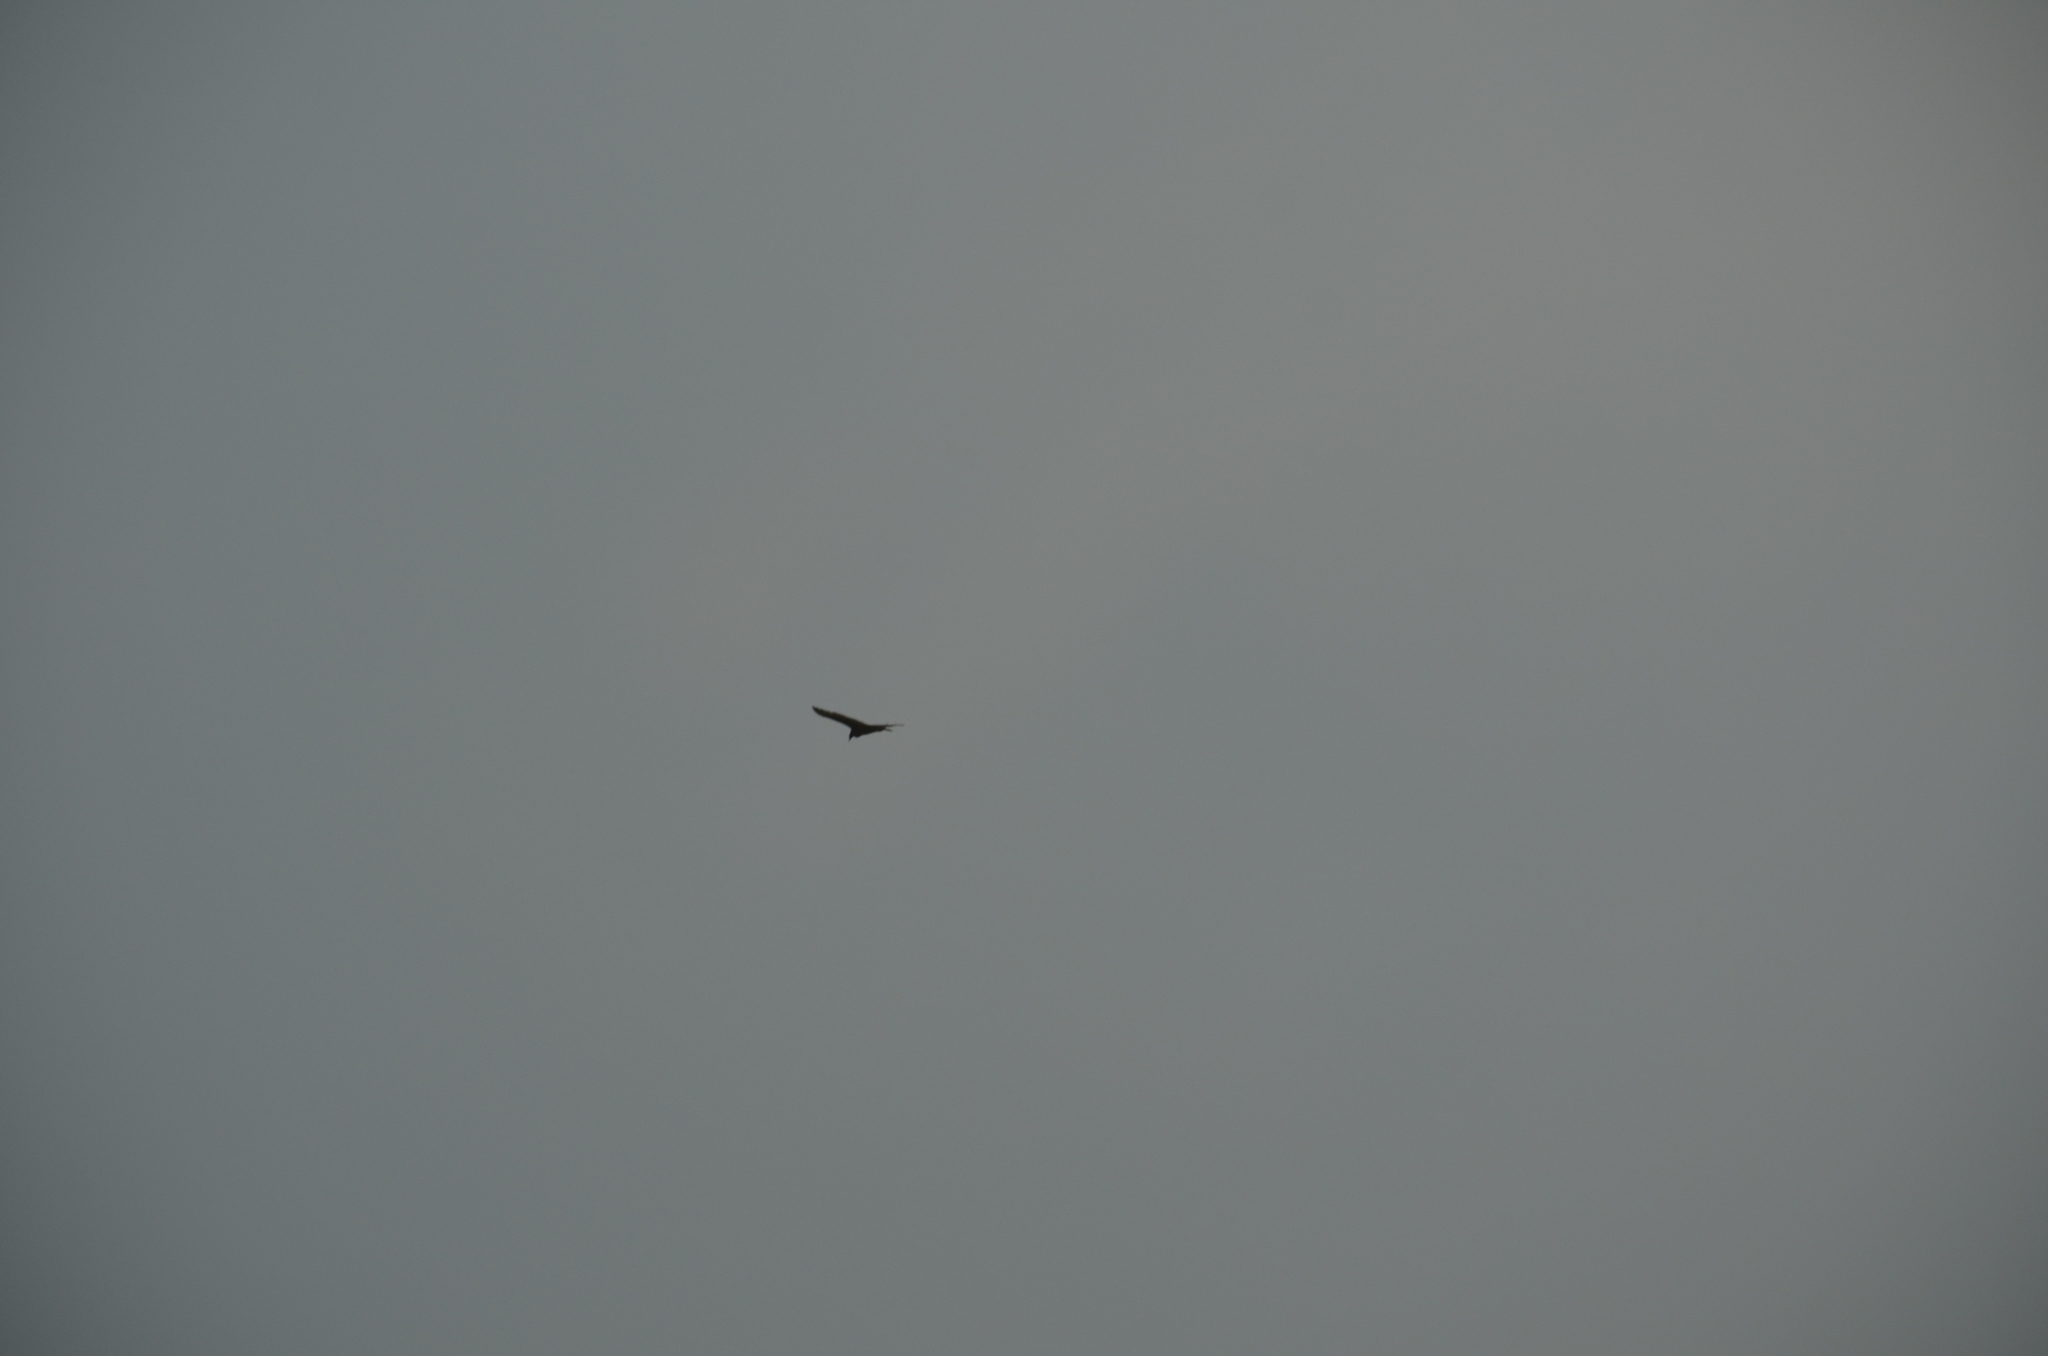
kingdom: Animalia
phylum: Chordata
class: Aves
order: Accipitriformes
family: Cathartidae
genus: Cathartes
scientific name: Cathartes aura
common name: Turkey vulture
